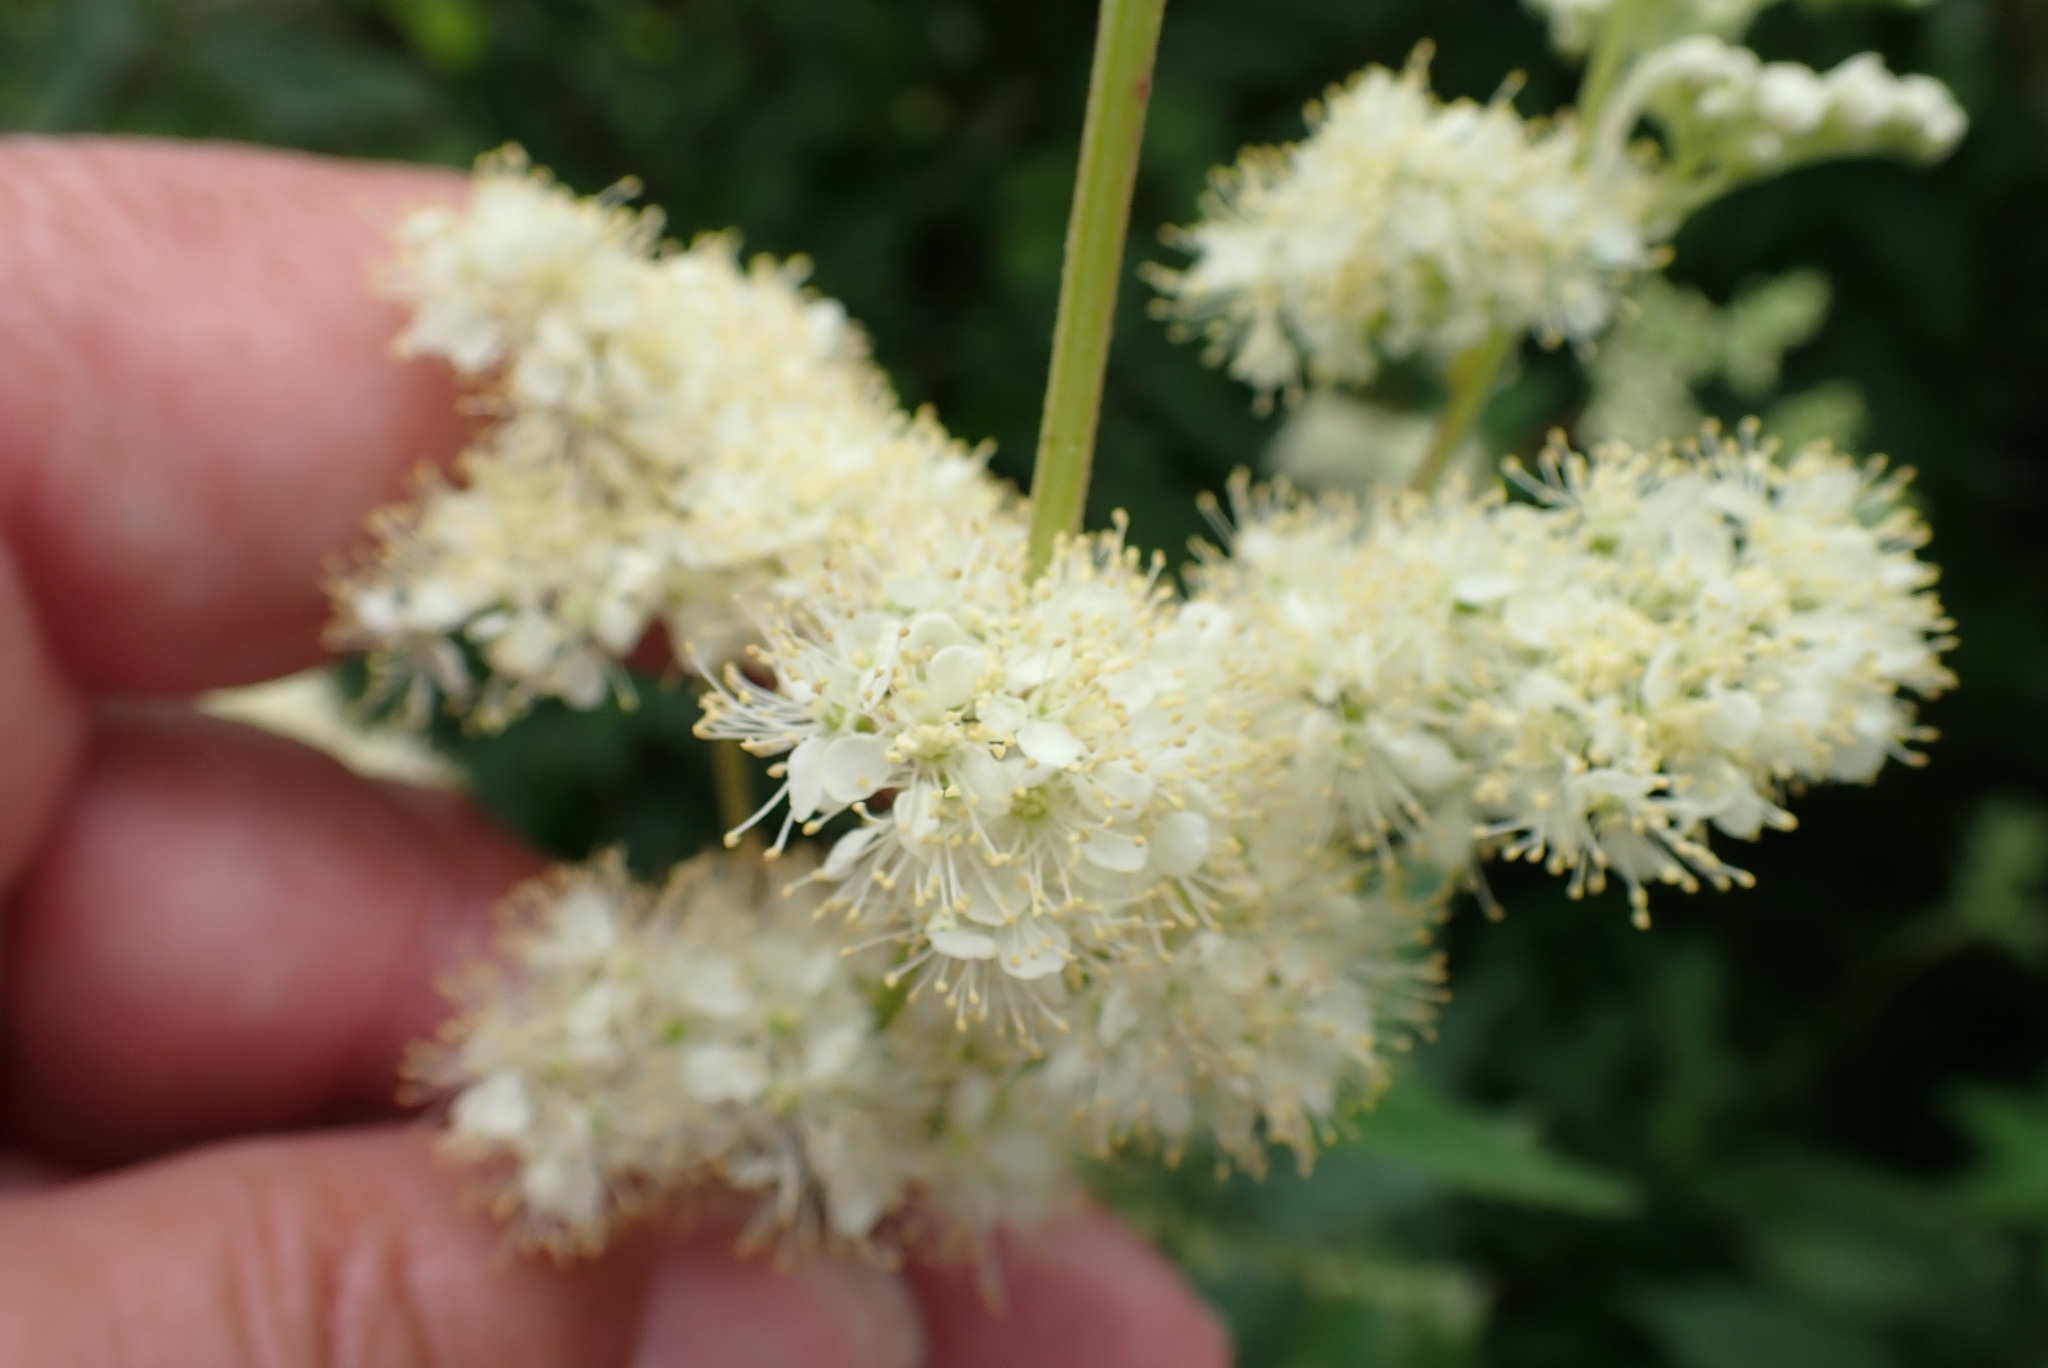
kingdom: Plantae
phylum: Tracheophyta
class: Magnoliopsida
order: Rosales
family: Rosaceae
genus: Filipendula
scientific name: Filipendula ulmaria
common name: Meadowsweet
